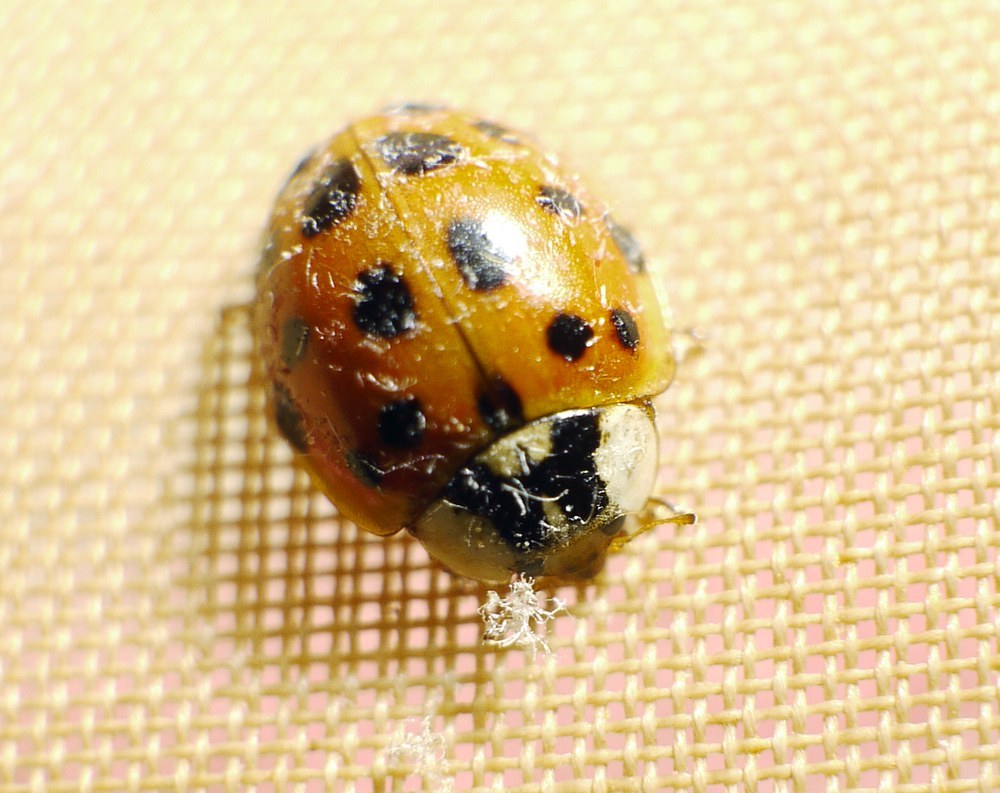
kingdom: Animalia
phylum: Arthropoda
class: Insecta
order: Coleoptera
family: Coccinellidae
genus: Harmonia
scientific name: Harmonia axyridis
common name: Harlequin ladybird
